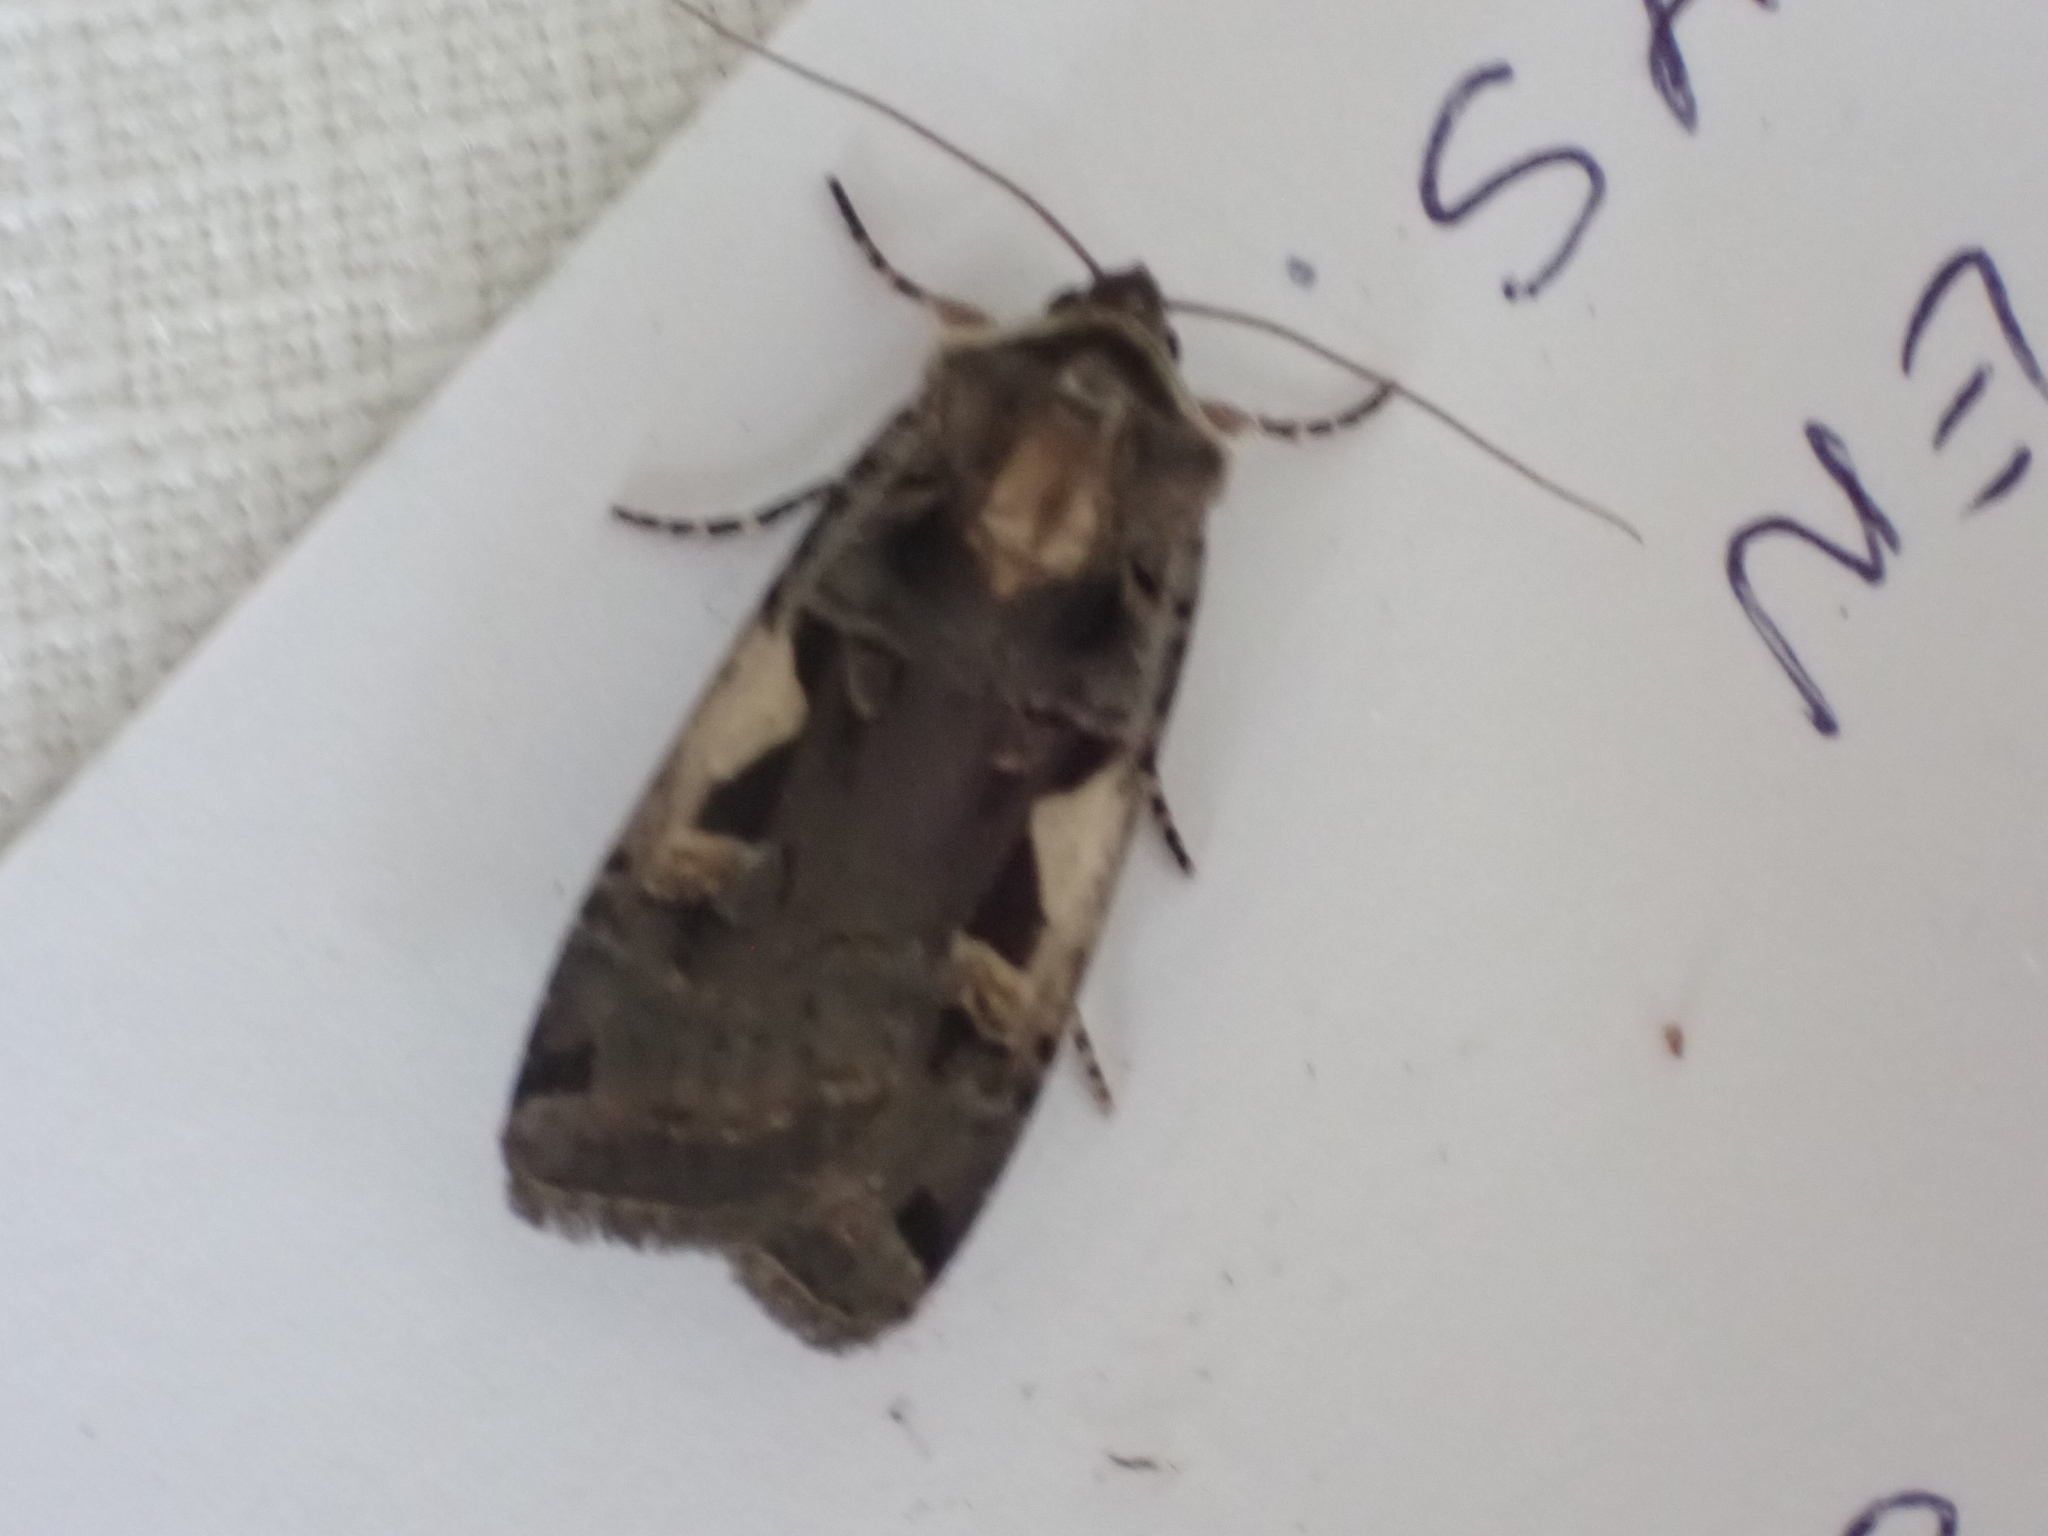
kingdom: Animalia
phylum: Arthropoda
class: Insecta
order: Lepidoptera
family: Noctuidae
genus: Xestia
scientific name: Xestia c-nigrum
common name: Setaceous hebrew character
